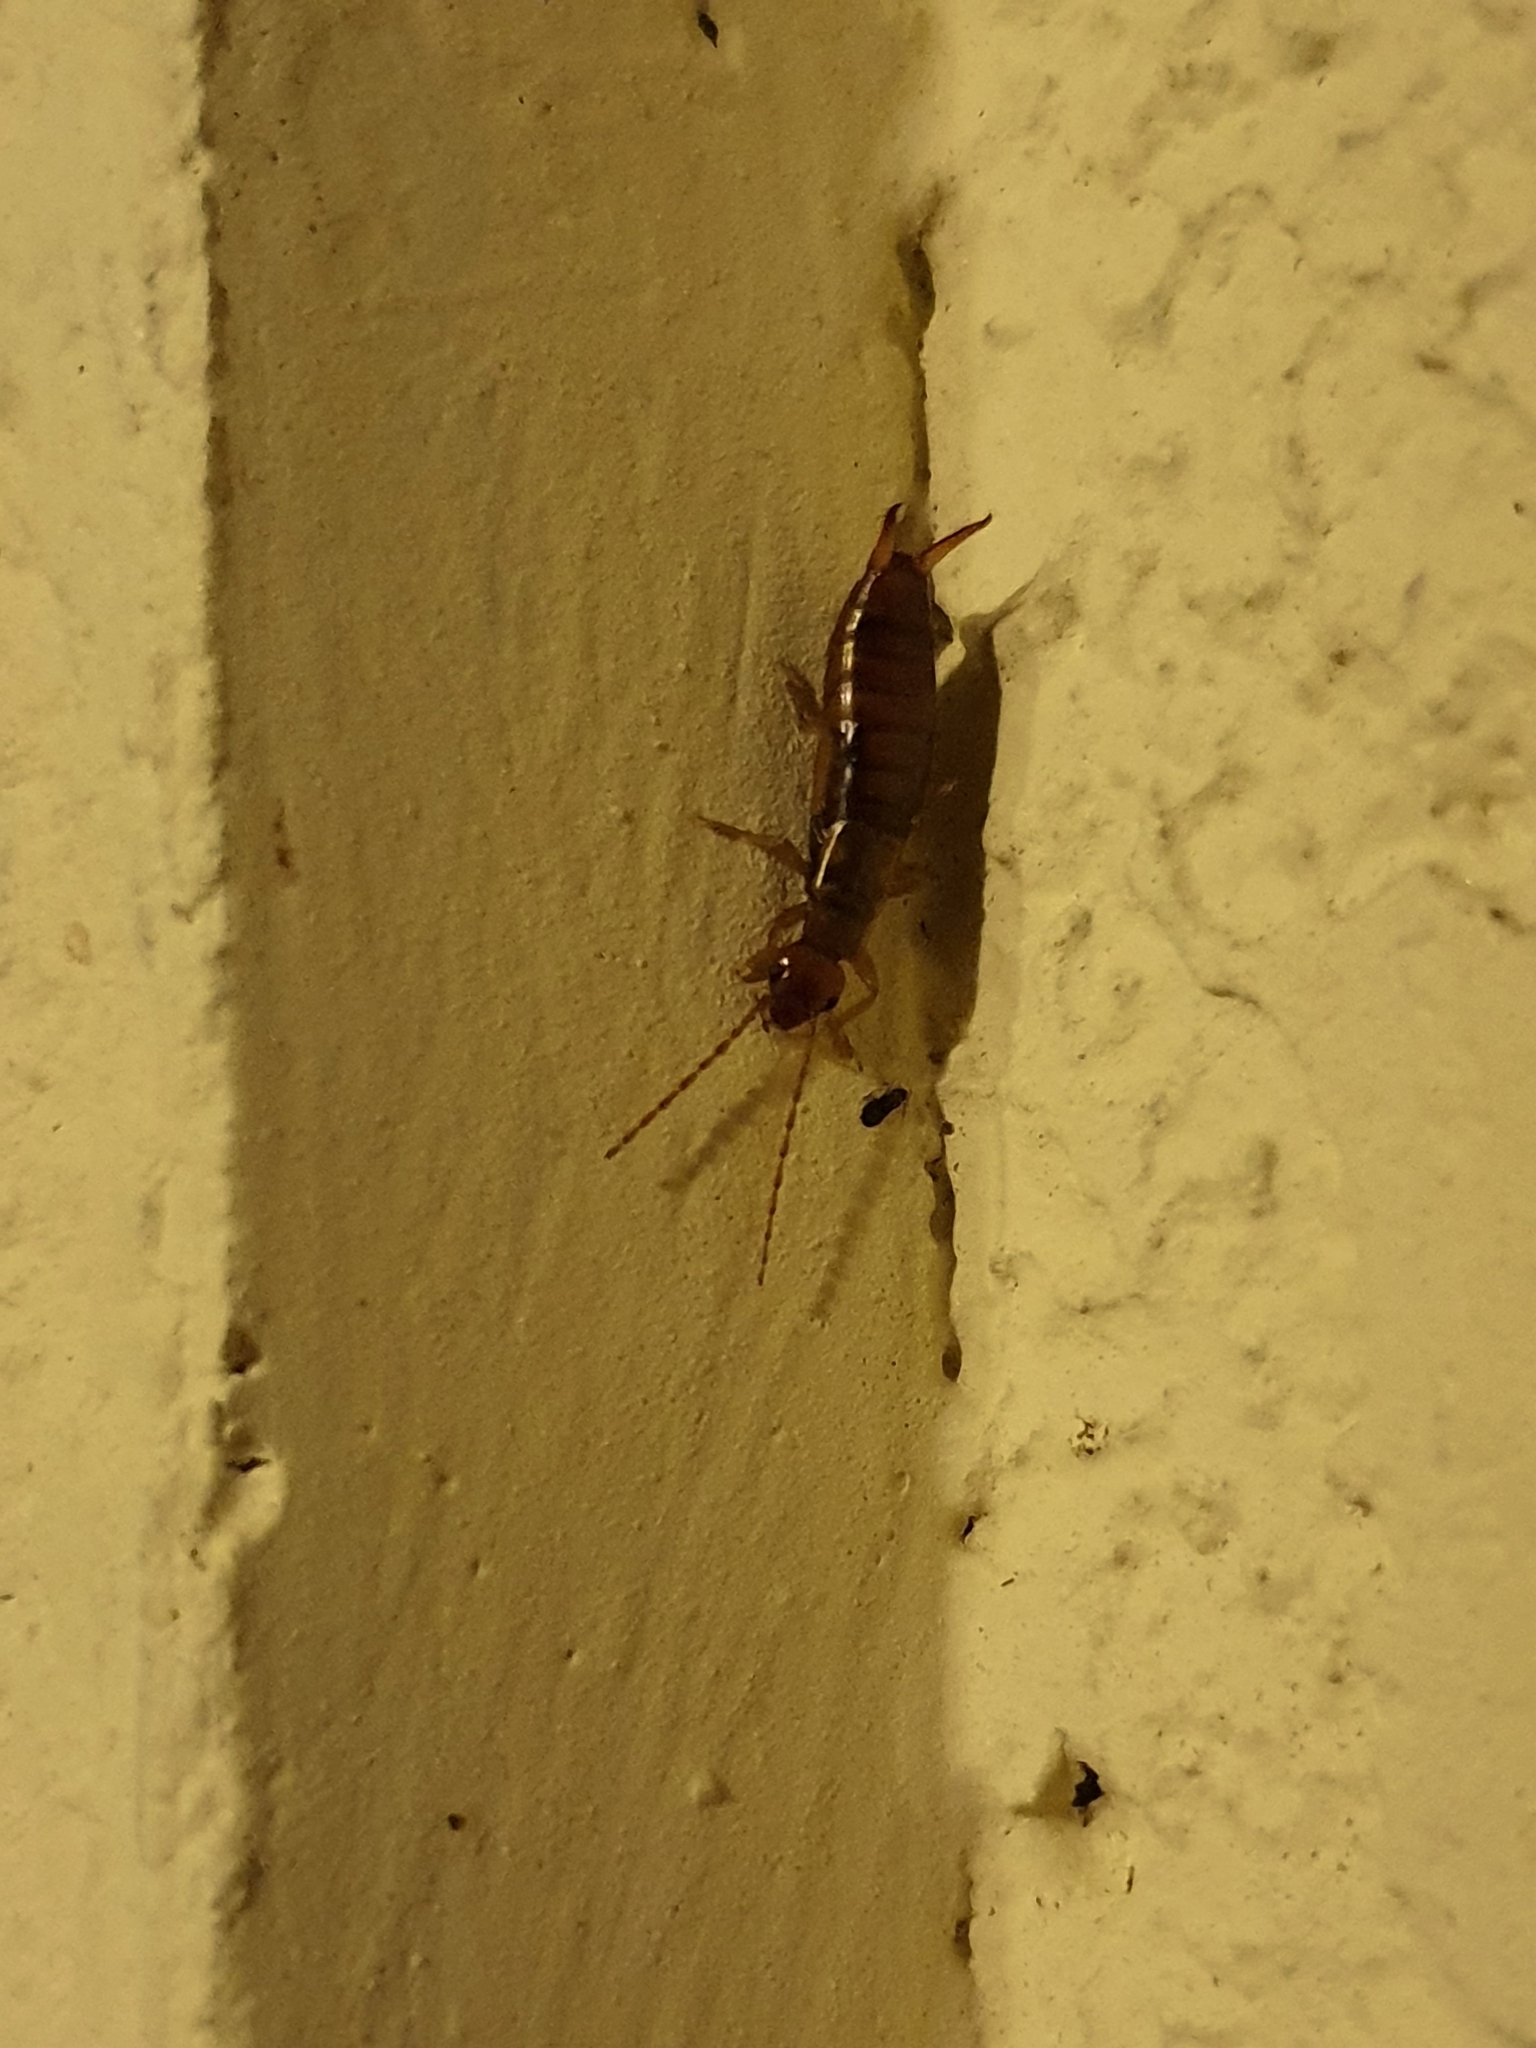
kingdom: Animalia
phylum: Arthropoda
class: Insecta
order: Dermaptera
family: Forficulidae
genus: Apterygida
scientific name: Apterygida albipennis
